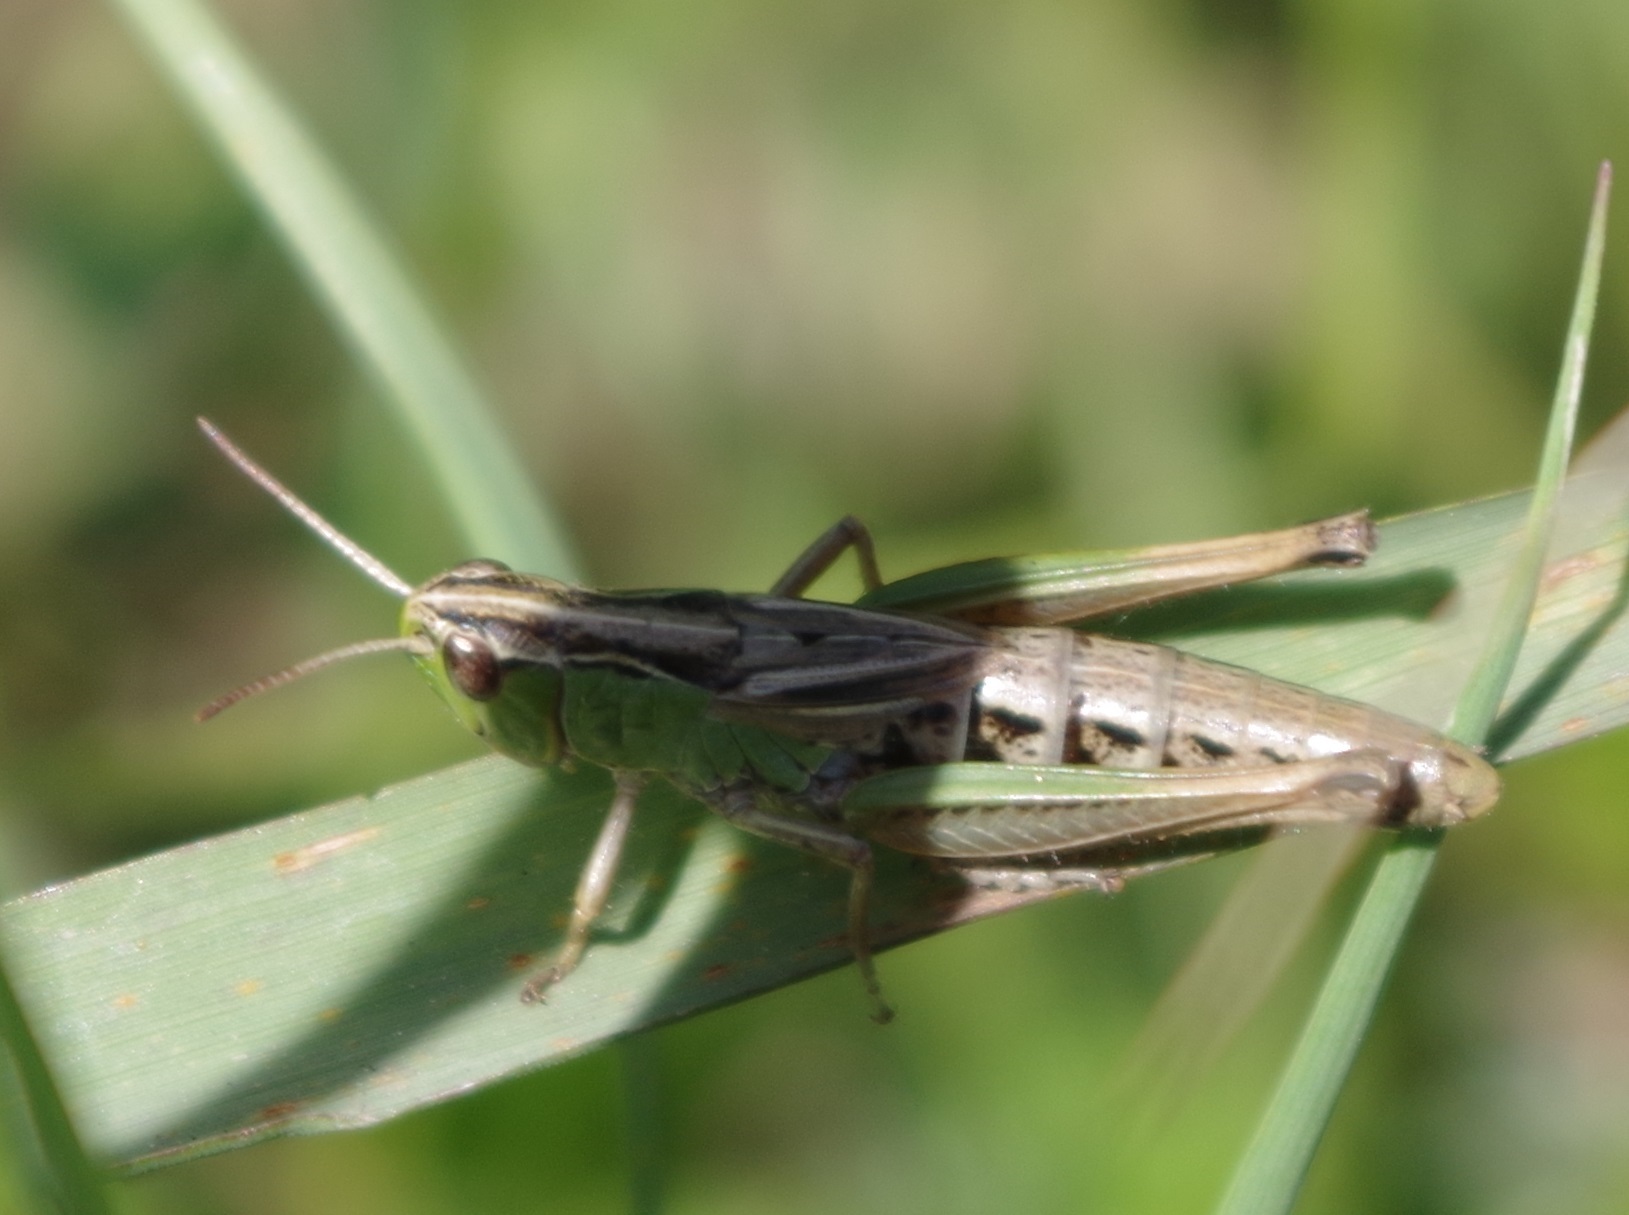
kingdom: Animalia
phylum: Arthropoda
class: Insecta
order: Orthoptera
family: Acrididae
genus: Pseudochorthippus
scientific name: Pseudochorthippus parallelus
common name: Meadow grasshopper
